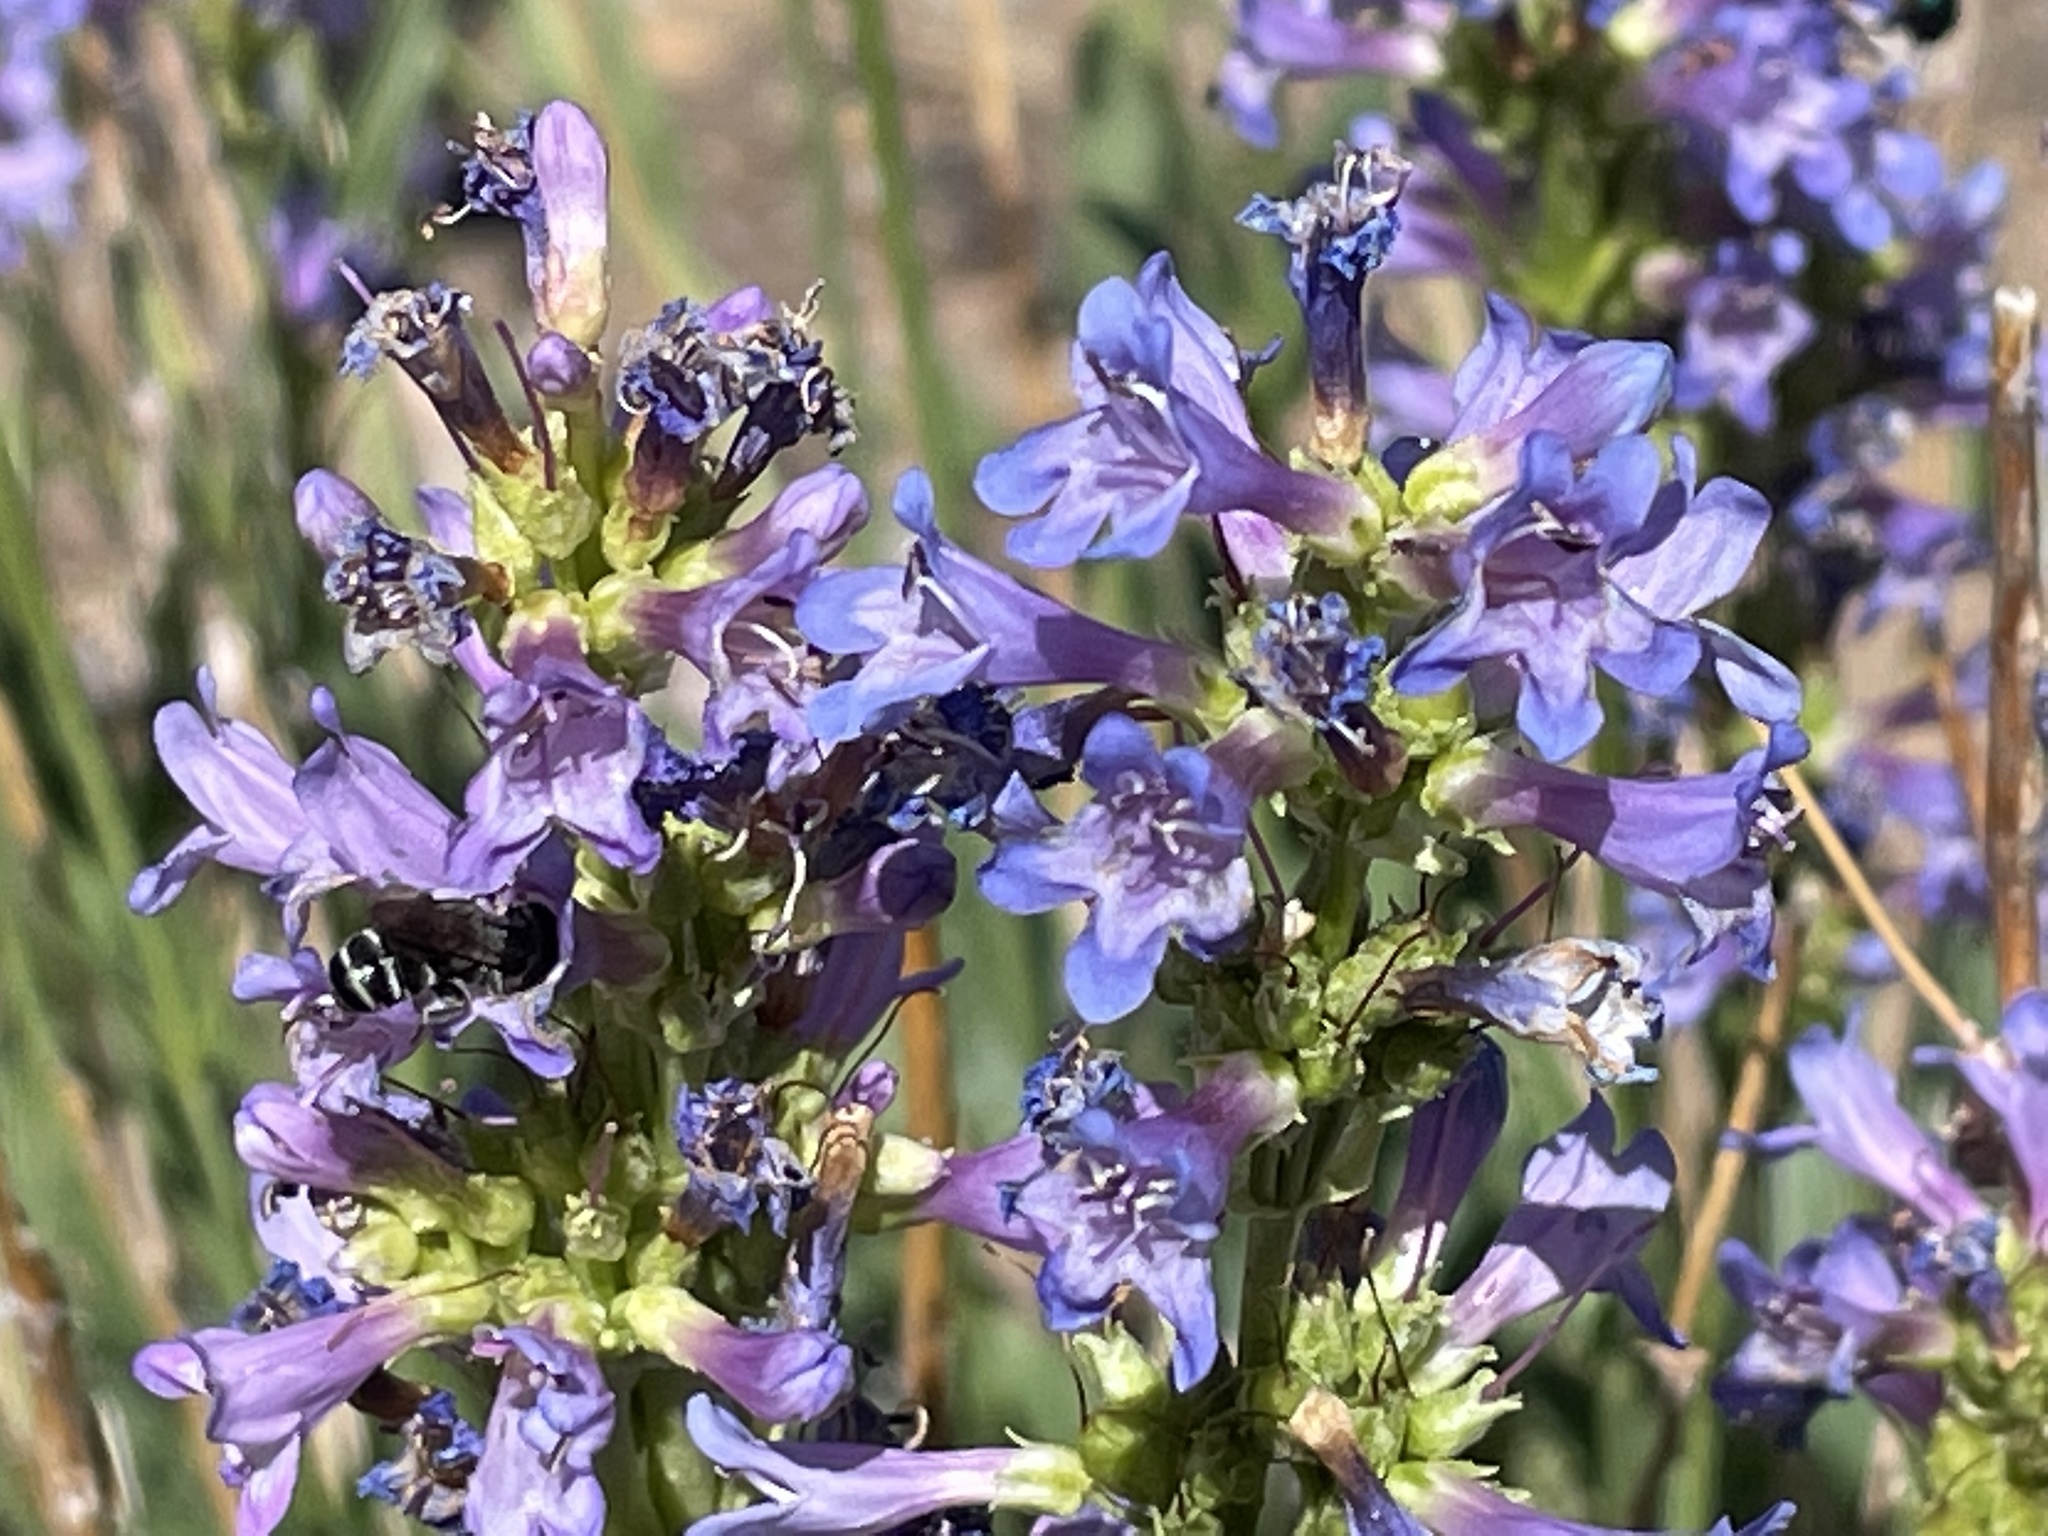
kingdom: Plantae
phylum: Tracheophyta
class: Magnoliopsida
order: Lamiales
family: Plantaginaceae
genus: Penstemon
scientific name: Penstemon euglaucus
